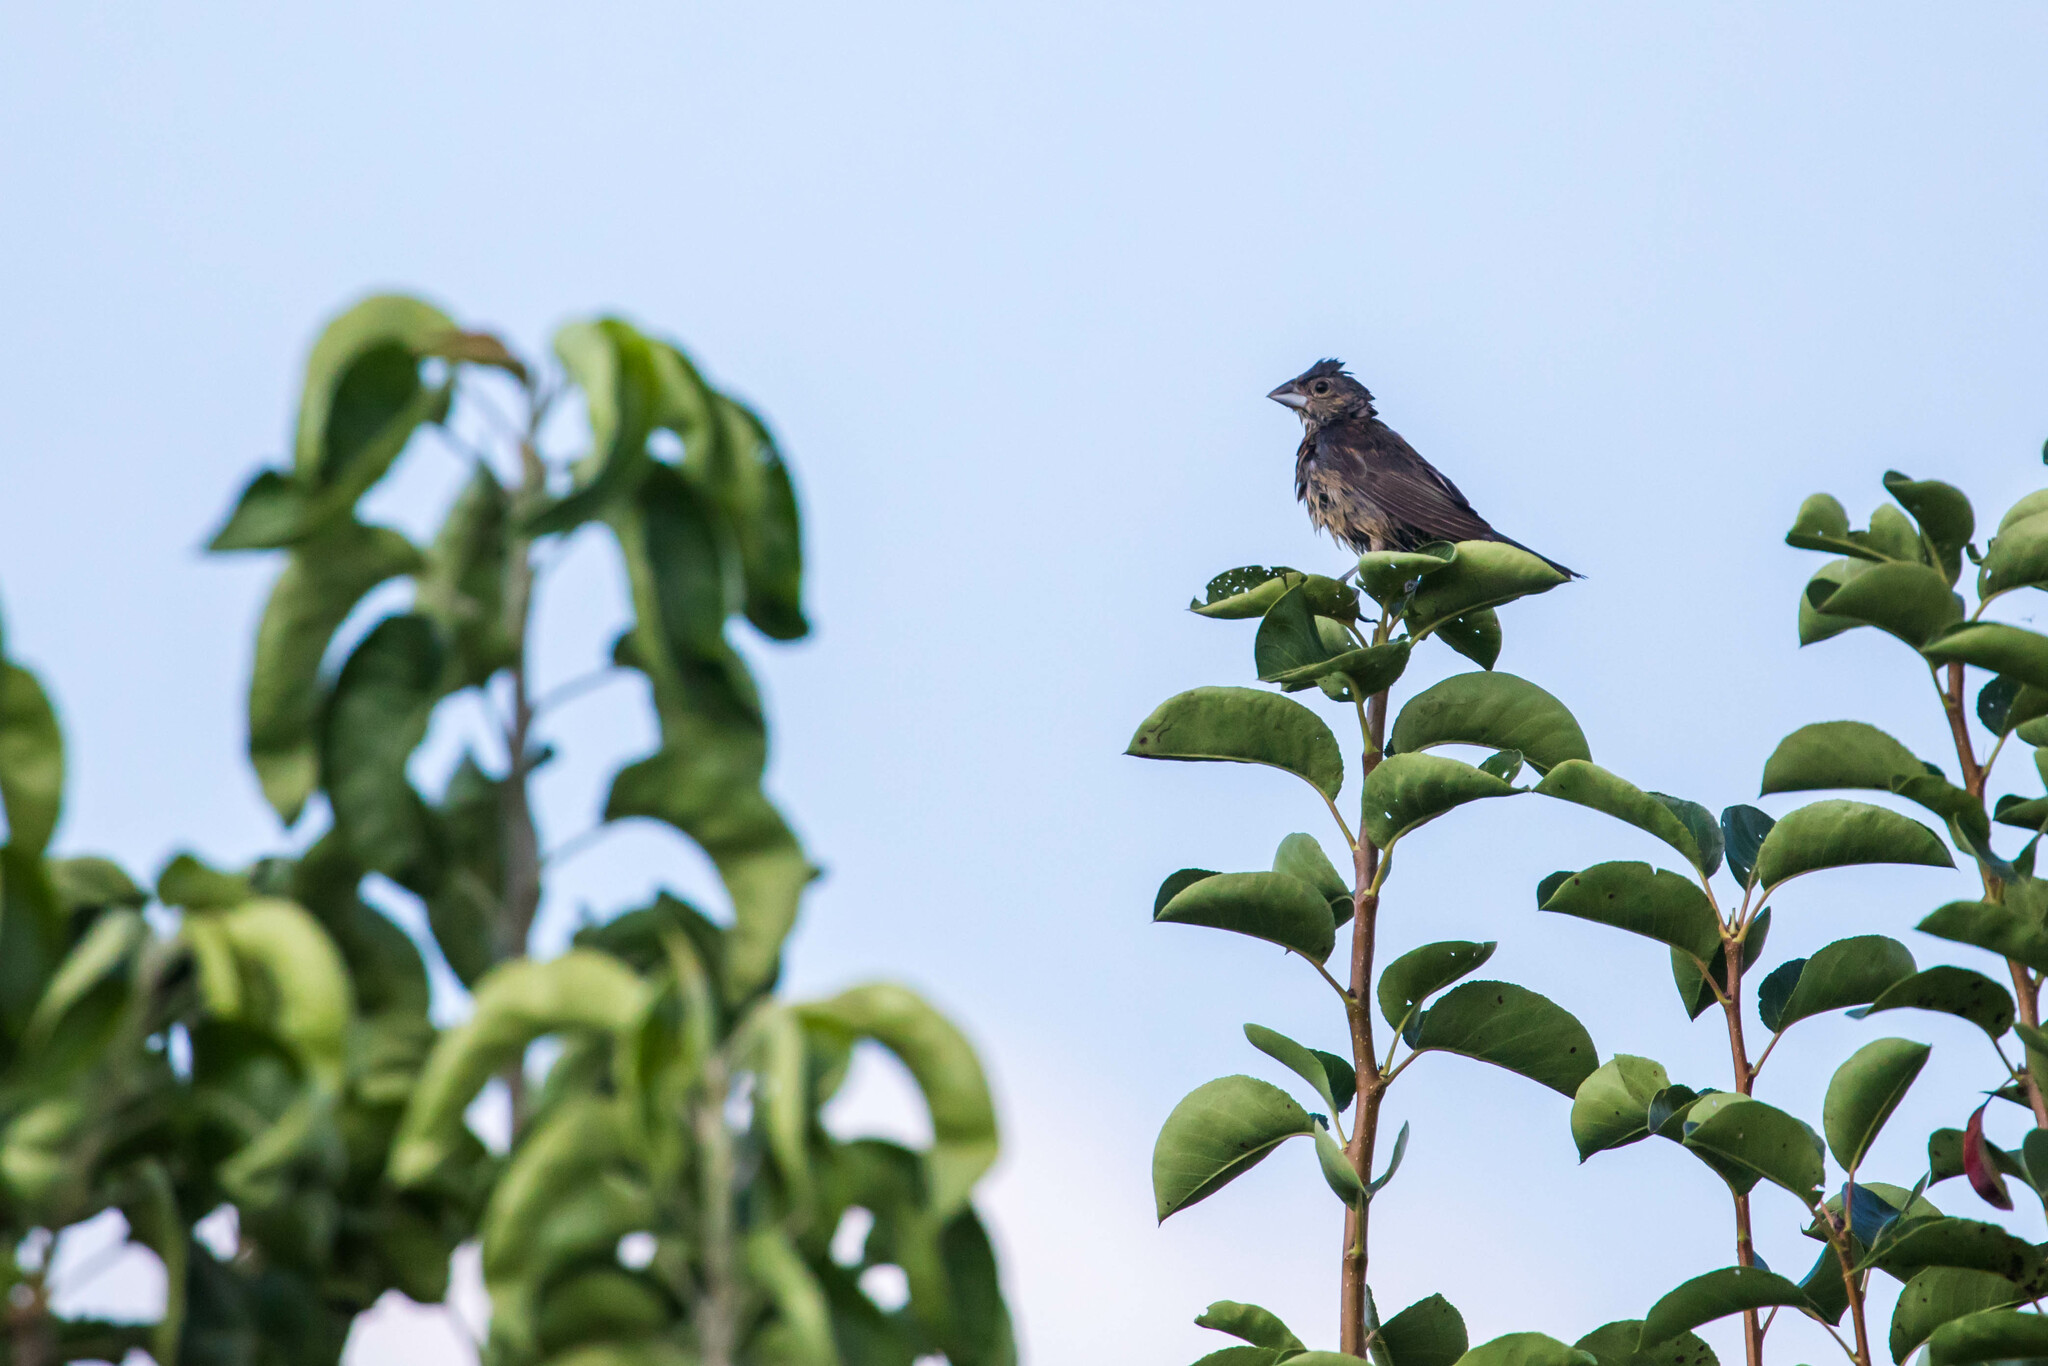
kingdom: Animalia
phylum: Chordata
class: Aves
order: Passeriformes
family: Cardinalidae
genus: Passerina
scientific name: Passerina caerulea
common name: Blue grosbeak
